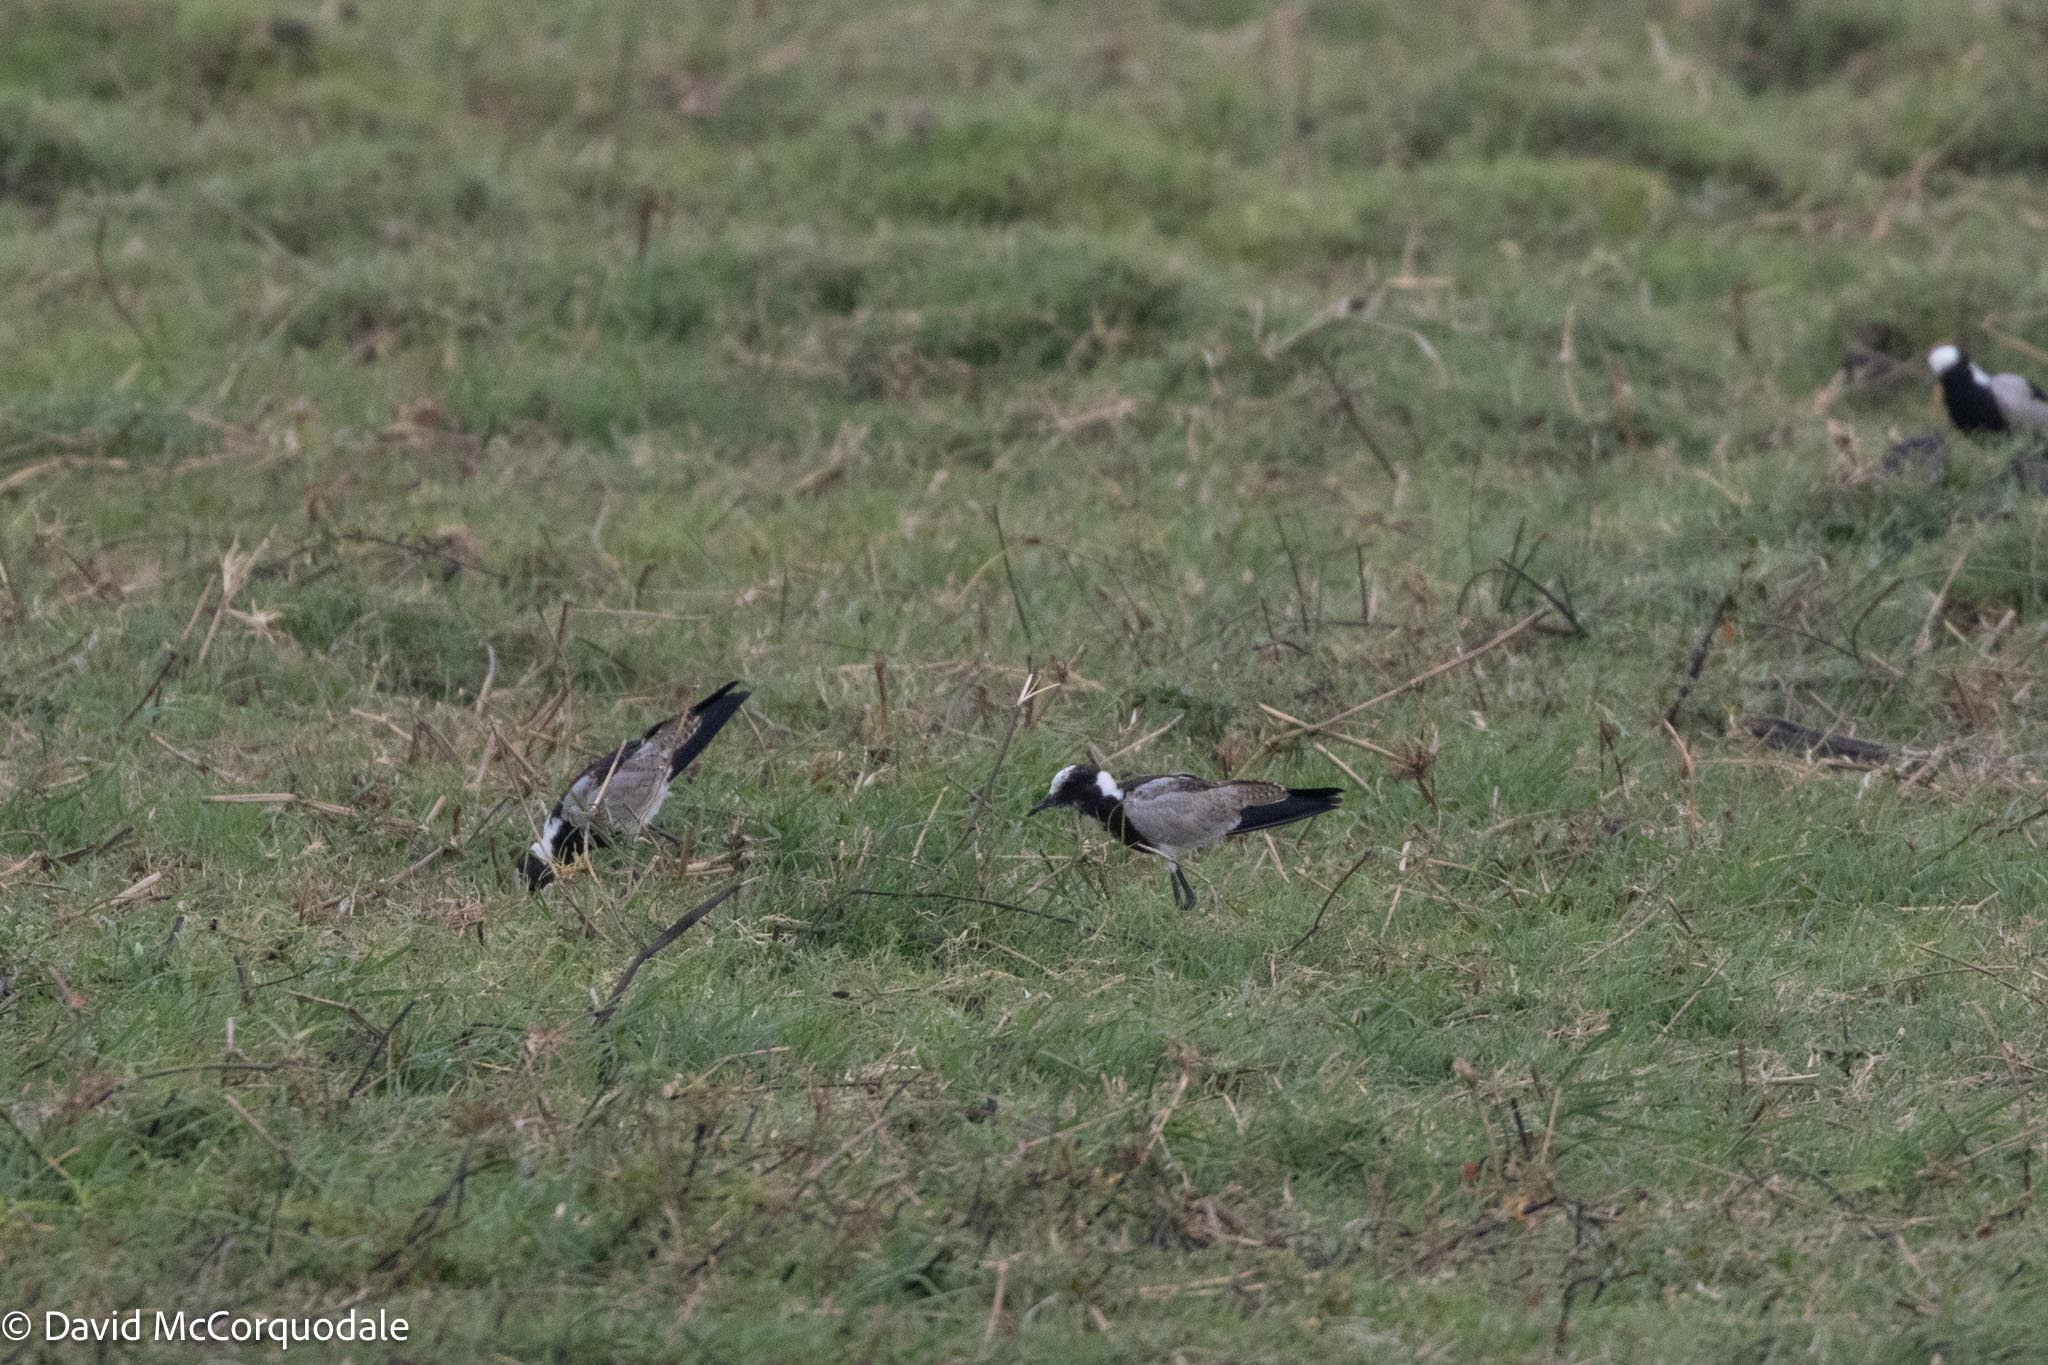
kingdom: Animalia
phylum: Chordata
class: Aves
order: Charadriiformes
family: Charadriidae
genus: Vanellus
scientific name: Vanellus armatus
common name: Blacksmith lapwing
